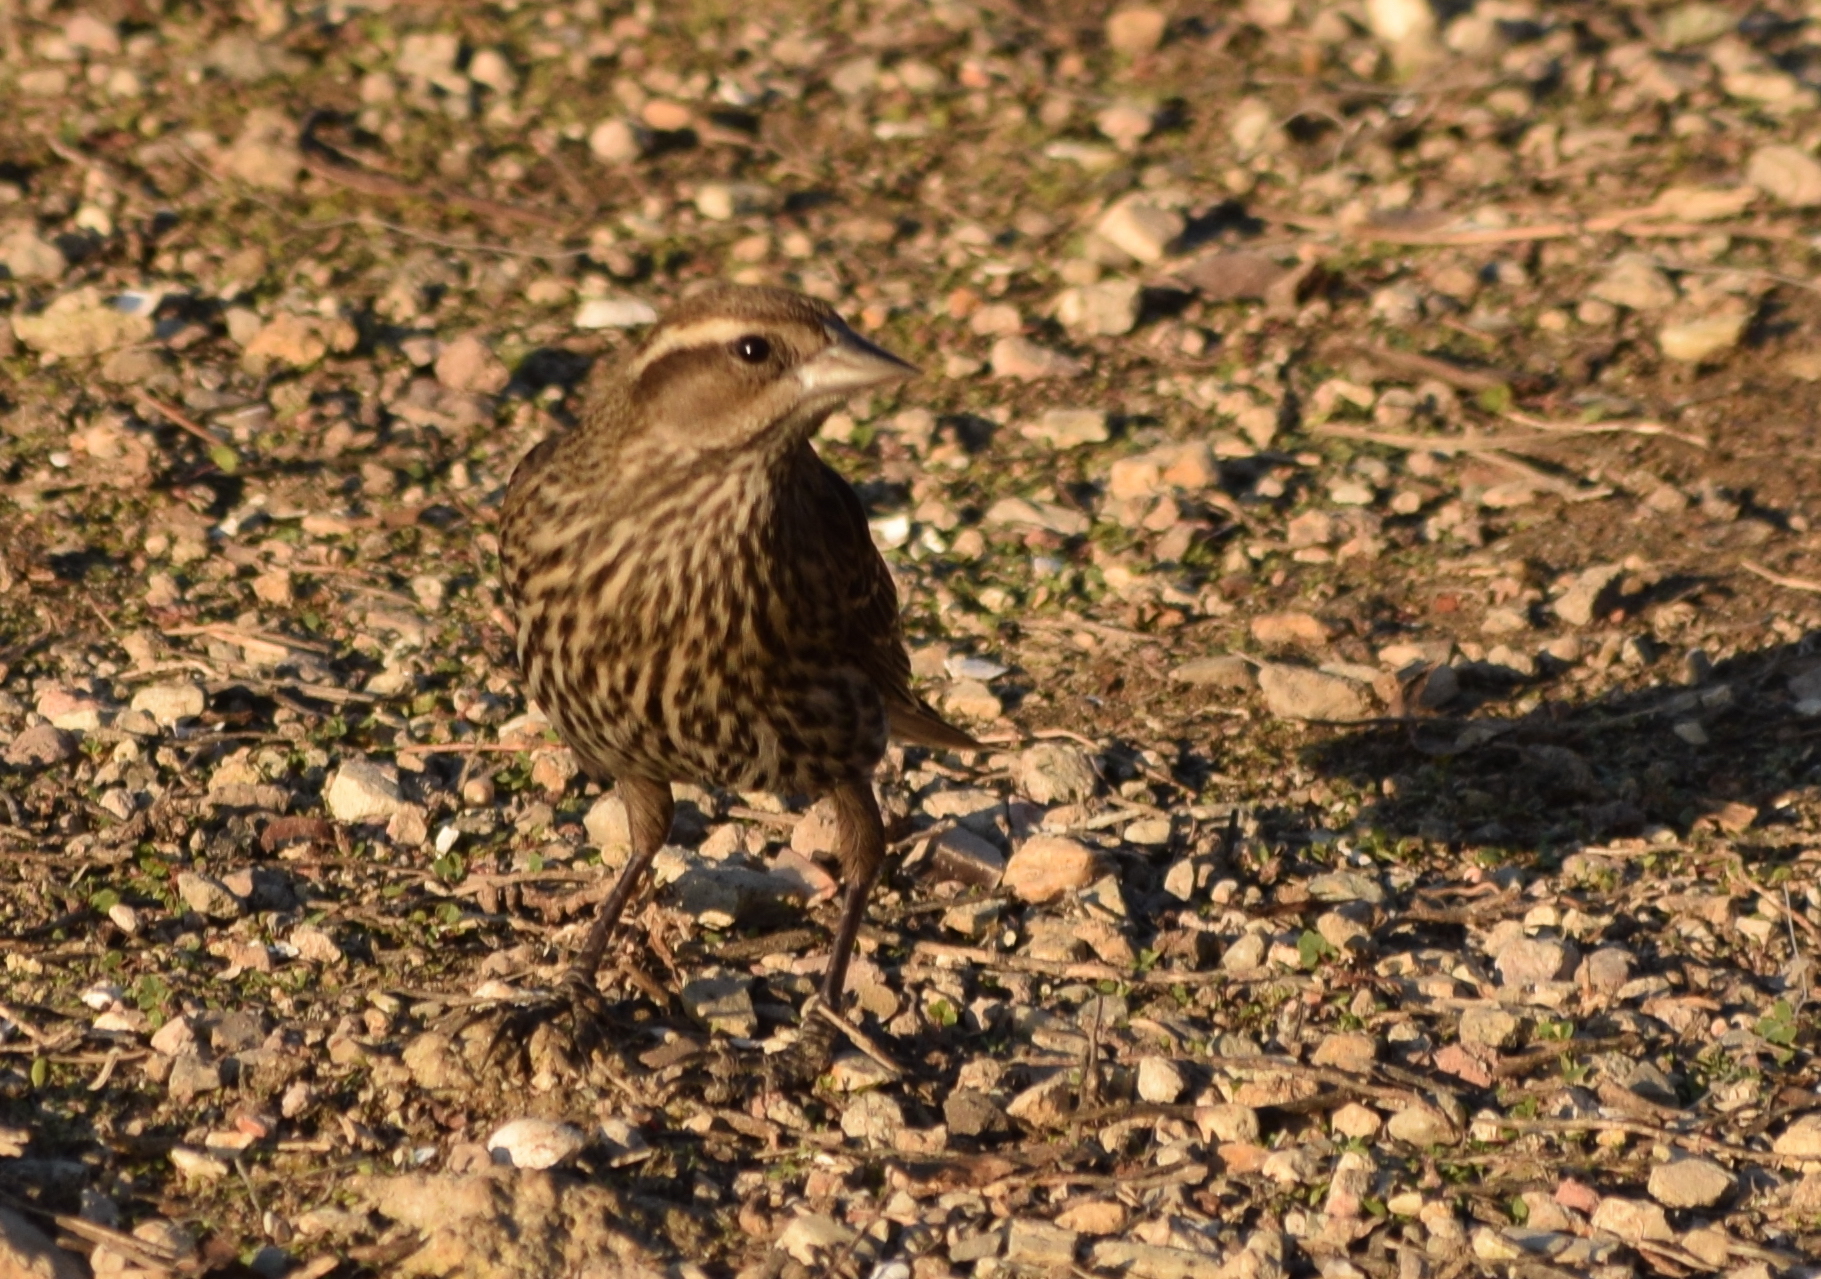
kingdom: Animalia
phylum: Chordata
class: Aves
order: Passeriformes
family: Icteridae
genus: Agelaius
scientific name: Agelaius phoeniceus
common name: Red-winged blackbird
